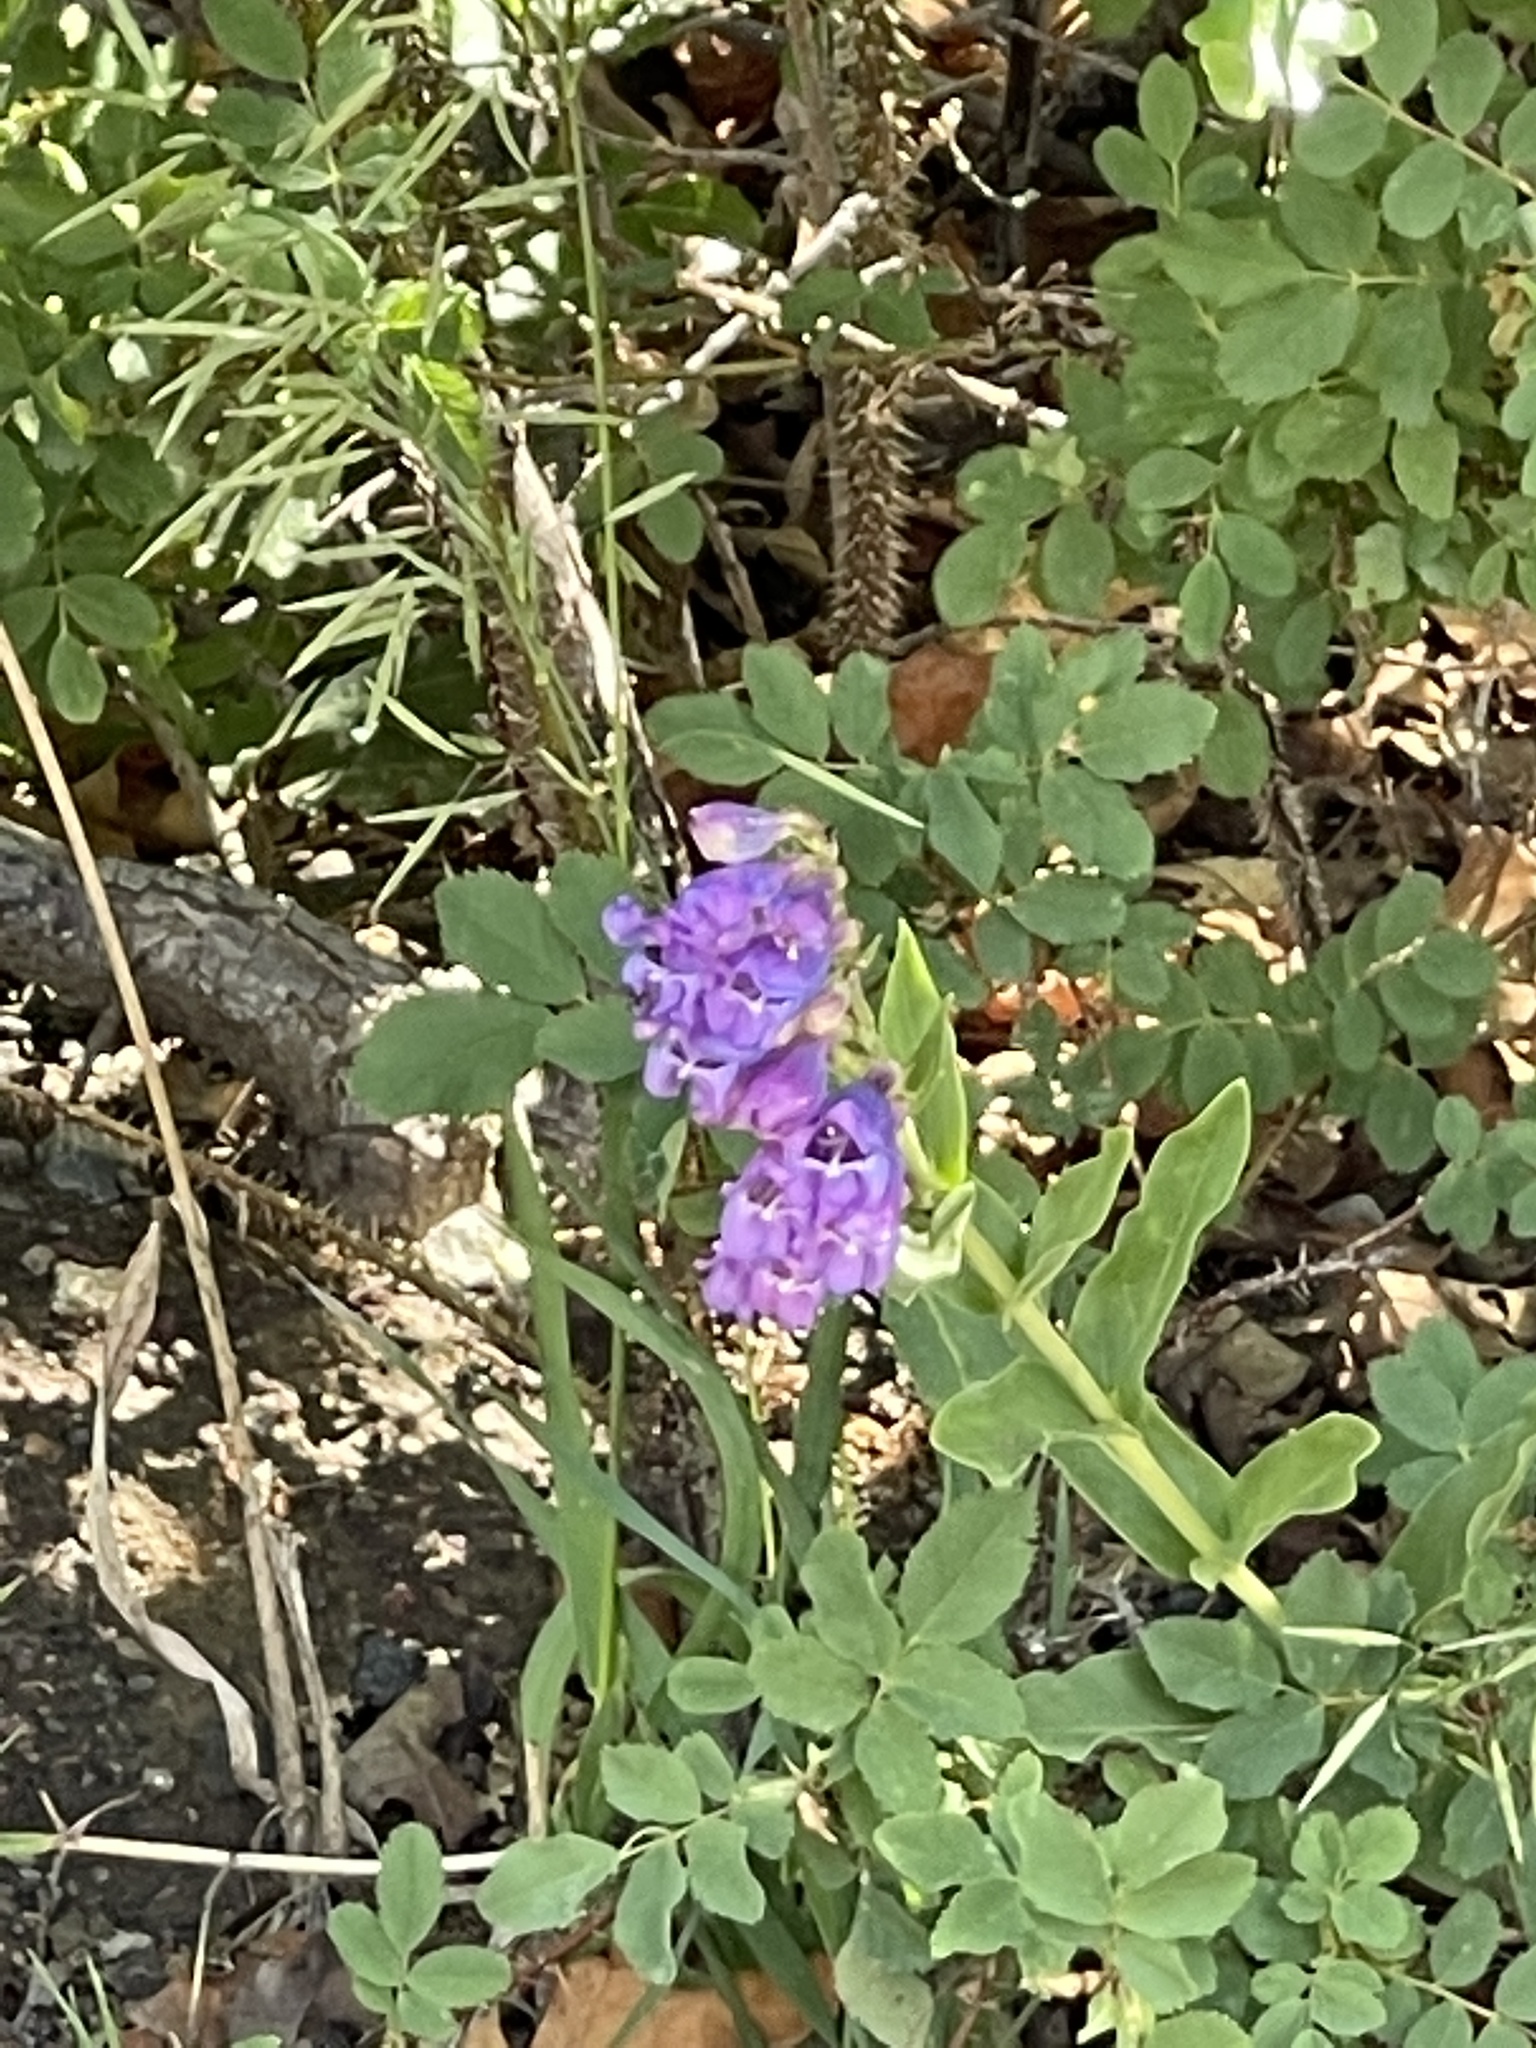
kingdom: Plantae
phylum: Tracheophyta
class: Magnoliopsida
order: Lamiales
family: Plantaginaceae
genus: Penstemon
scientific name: Penstemon glaber
